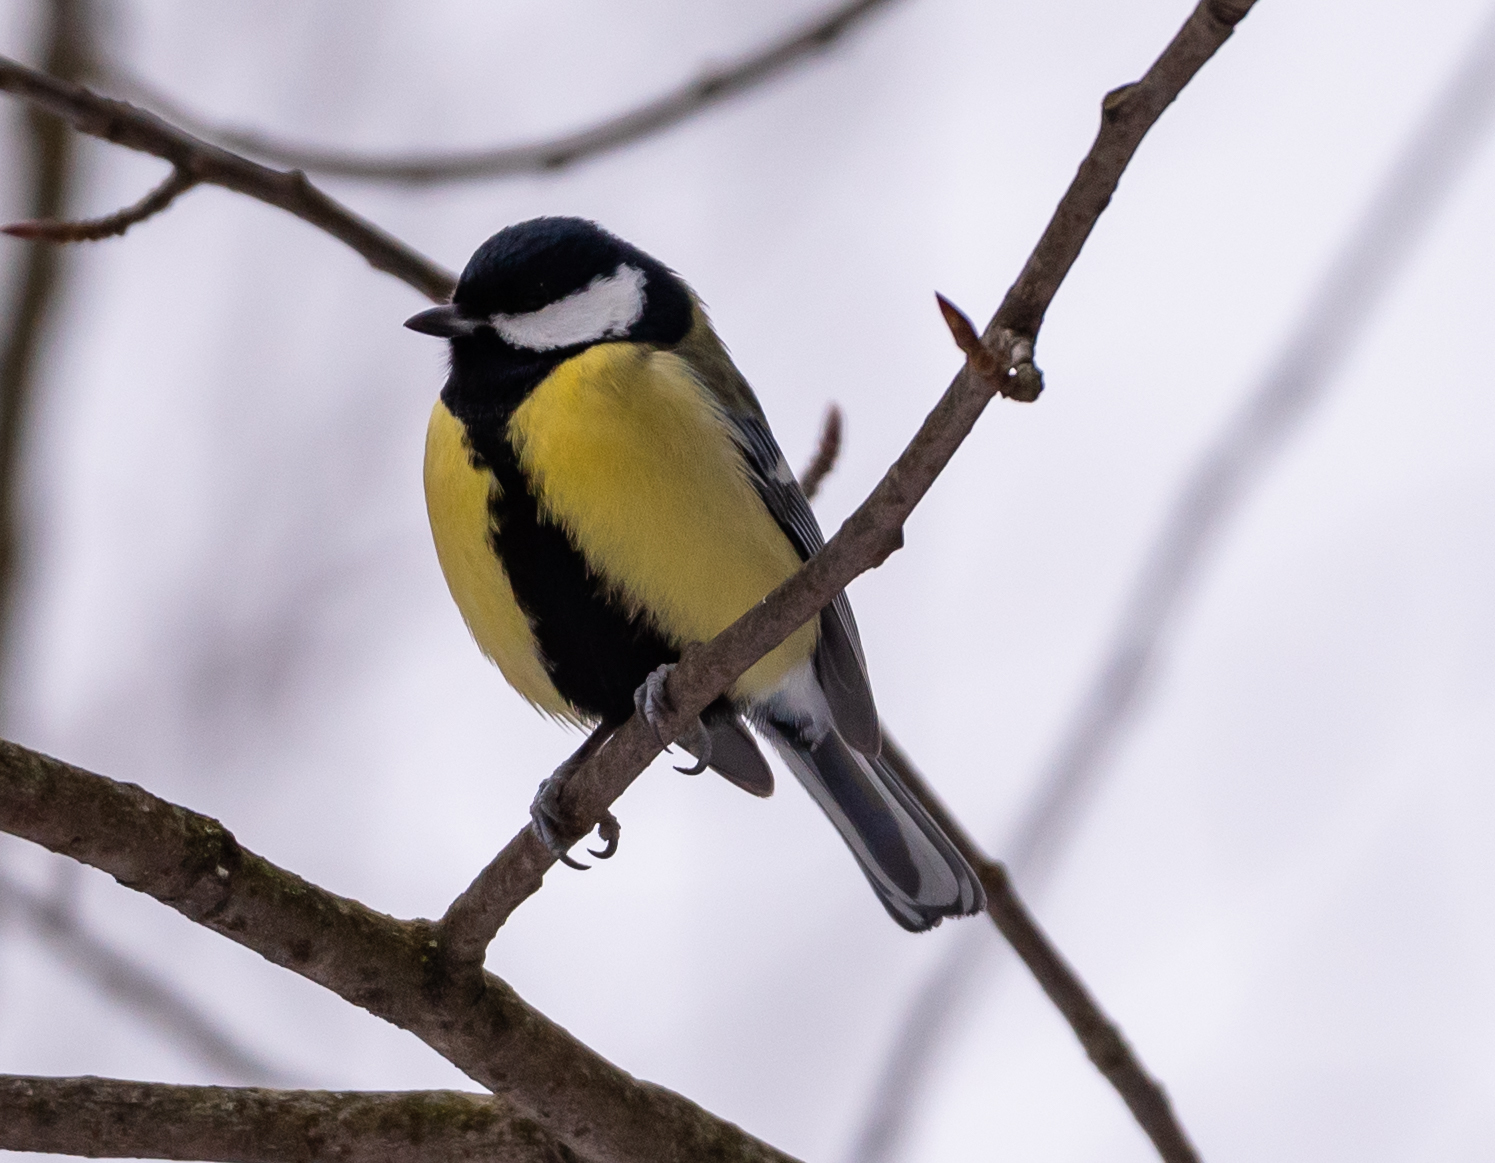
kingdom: Animalia
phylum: Chordata
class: Aves
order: Passeriformes
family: Paridae
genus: Parus
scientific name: Parus major
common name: Great tit
